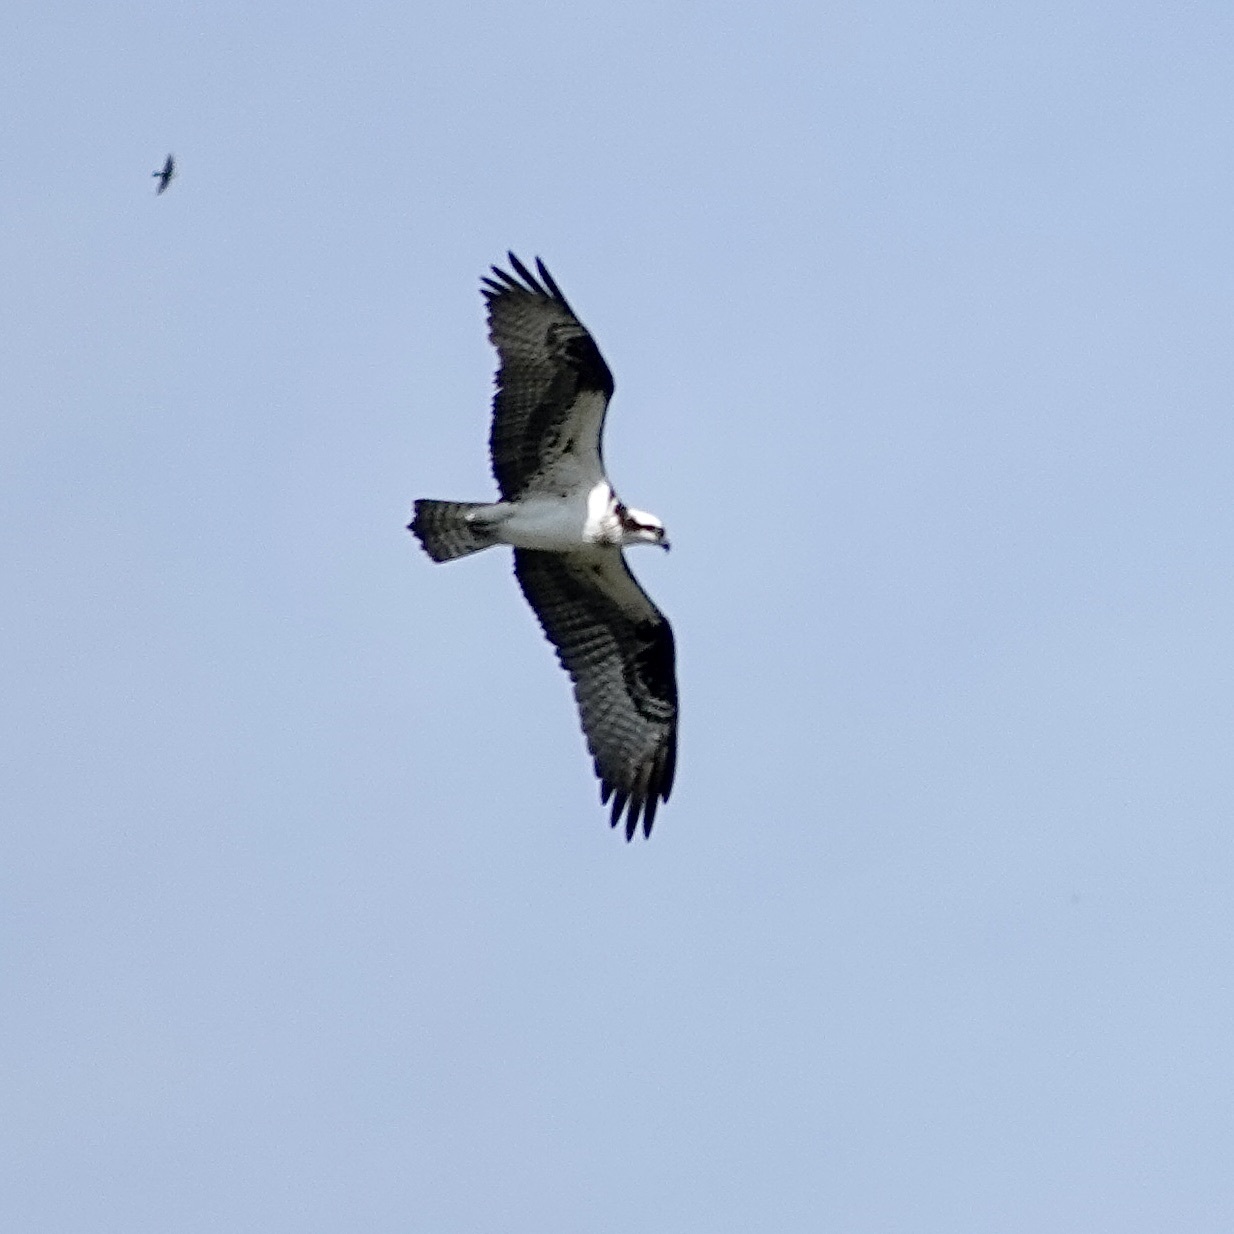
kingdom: Animalia
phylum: Chordata
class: Aves
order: Accipitriformes
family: Pandionidae
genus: Pandion
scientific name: Pandion haliaetus
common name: Osprey
